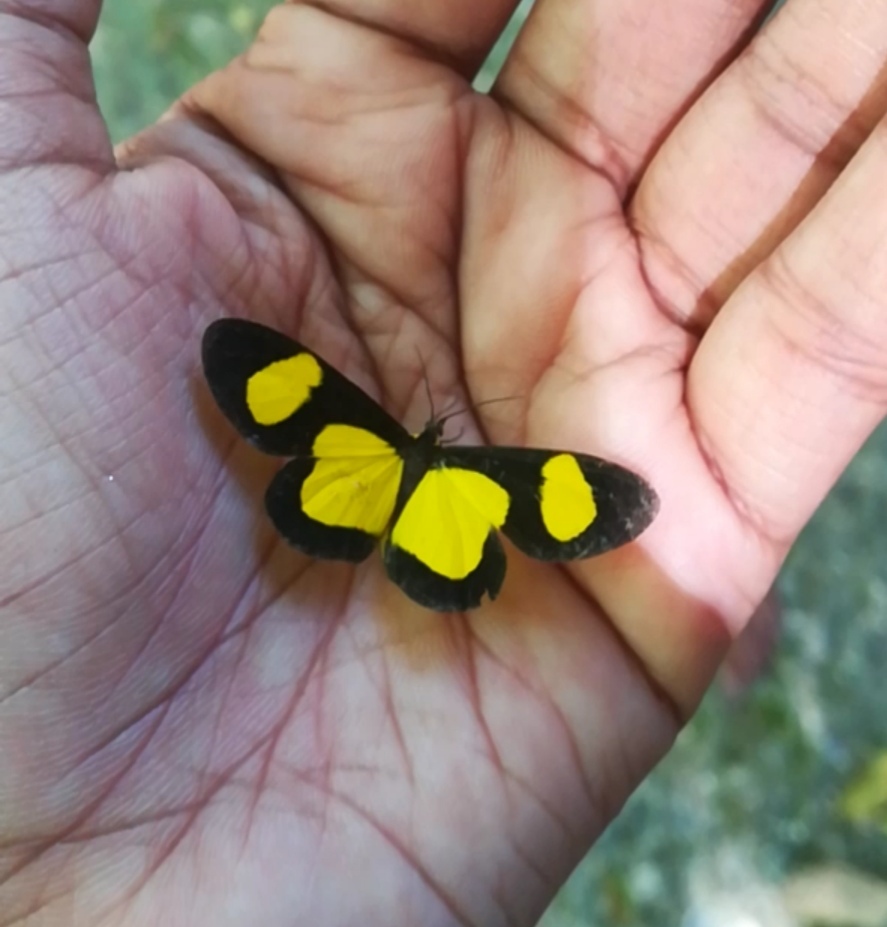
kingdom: Animalia
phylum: Arthropoda
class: Insecta
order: Lepidoptera
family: Geometridae
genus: Cyllopoda
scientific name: Cyllopoda jatropharia
